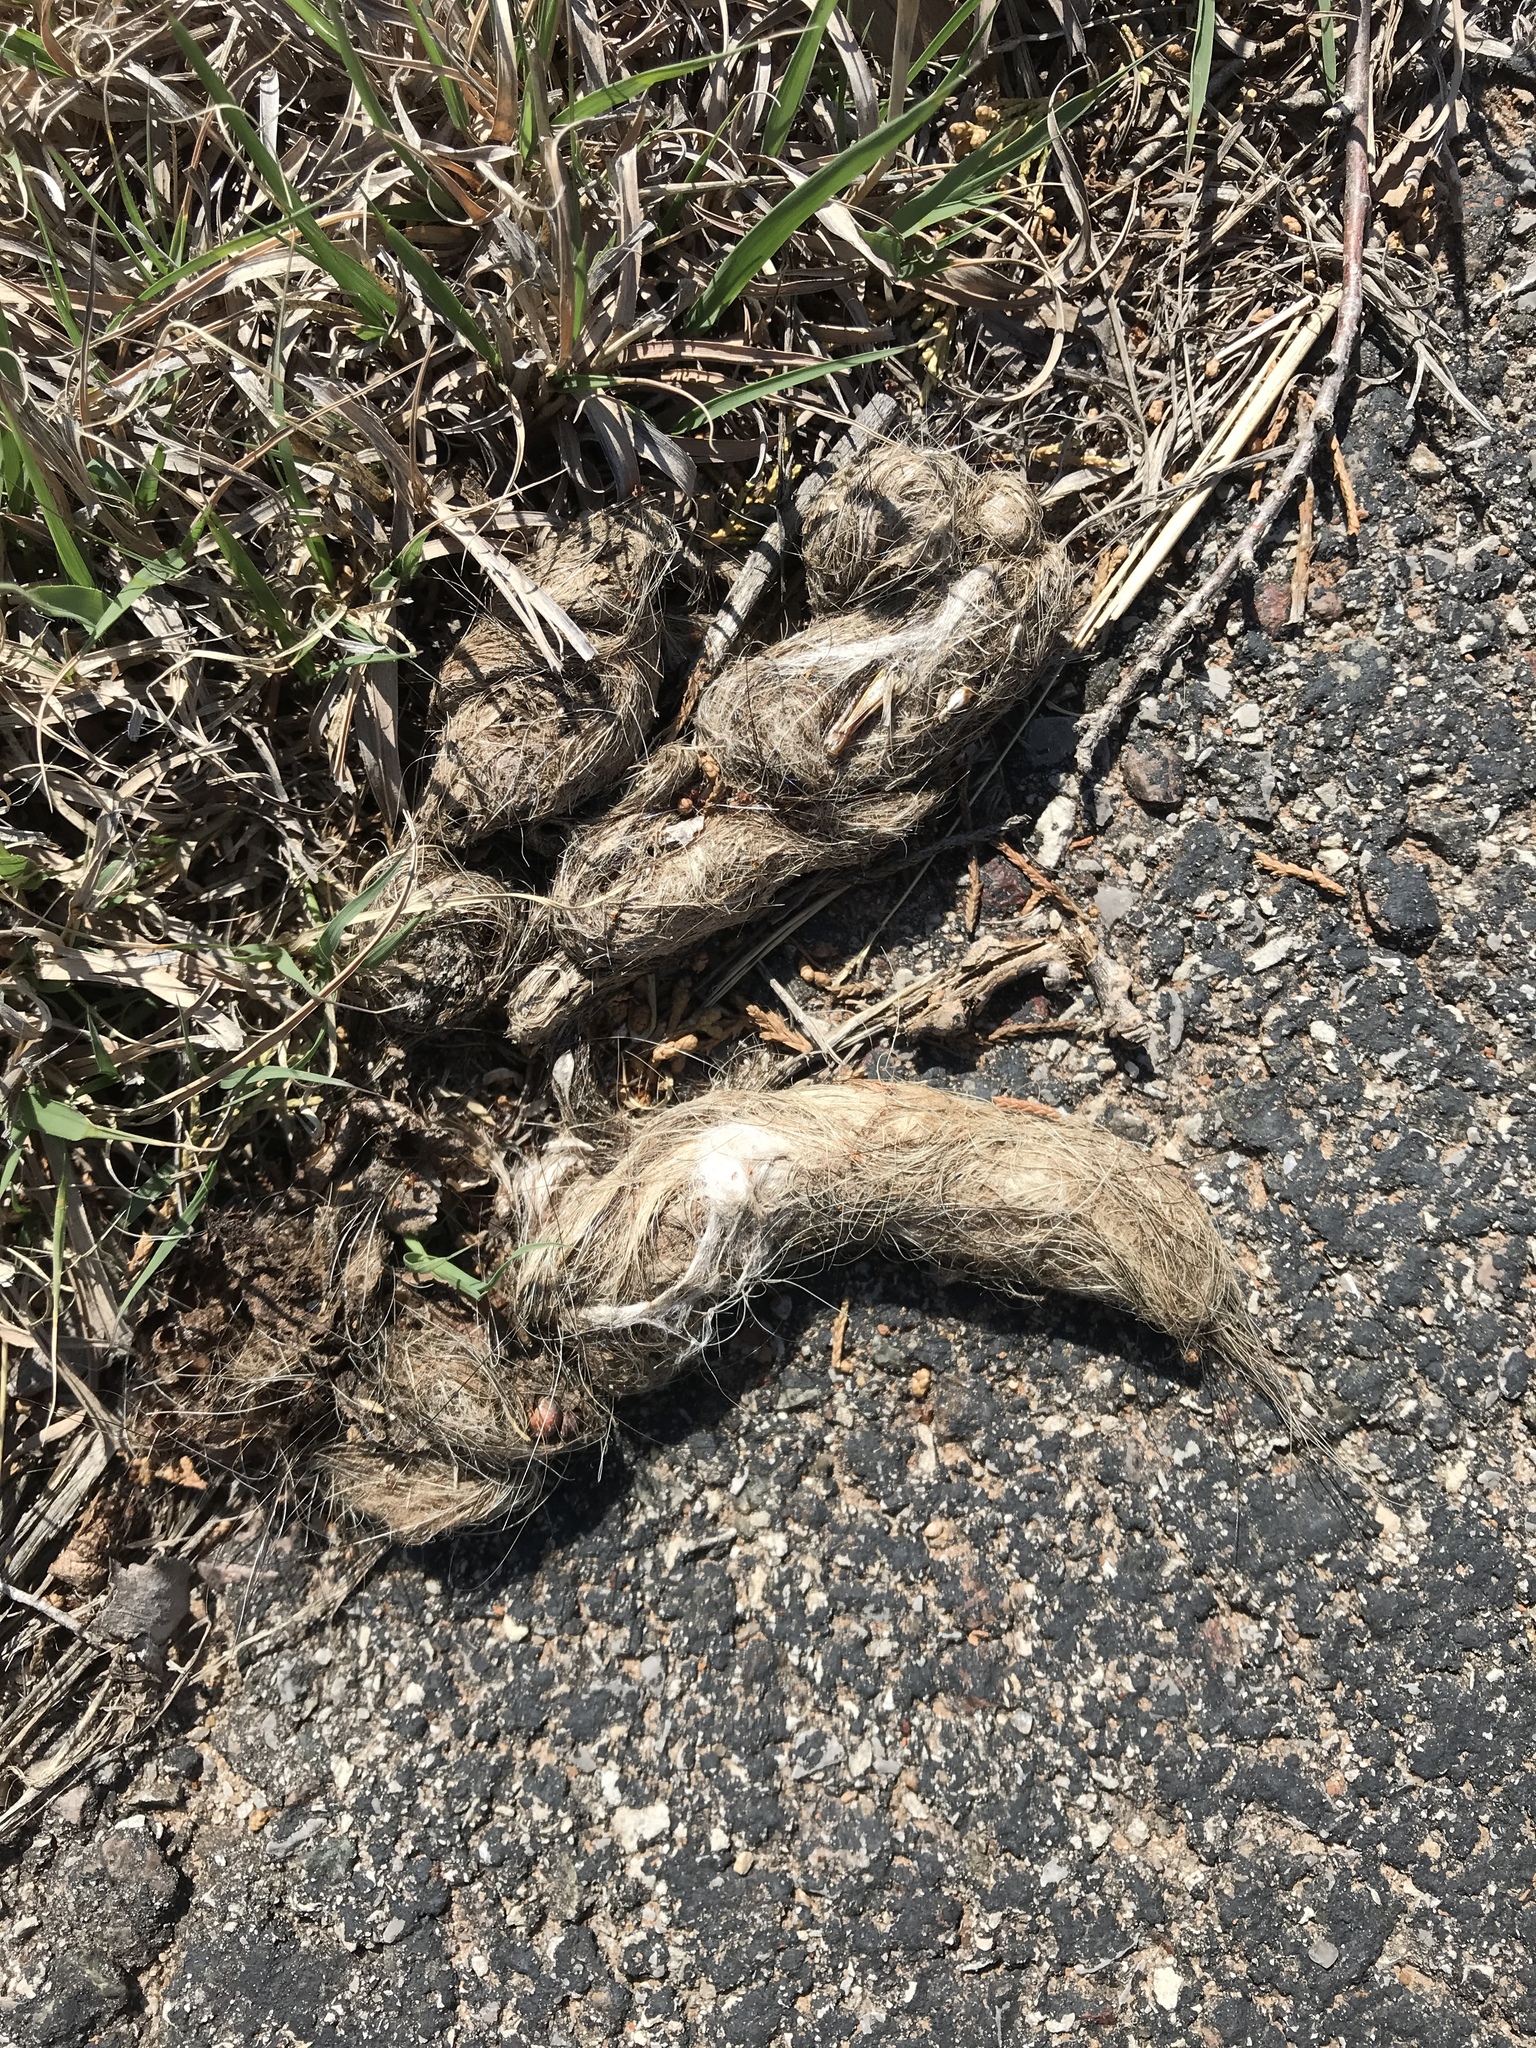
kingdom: Animalia
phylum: Chordata
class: Mammalia
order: Carnivora
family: Canidae
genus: Canis
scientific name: Canis latrans
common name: Coyote
